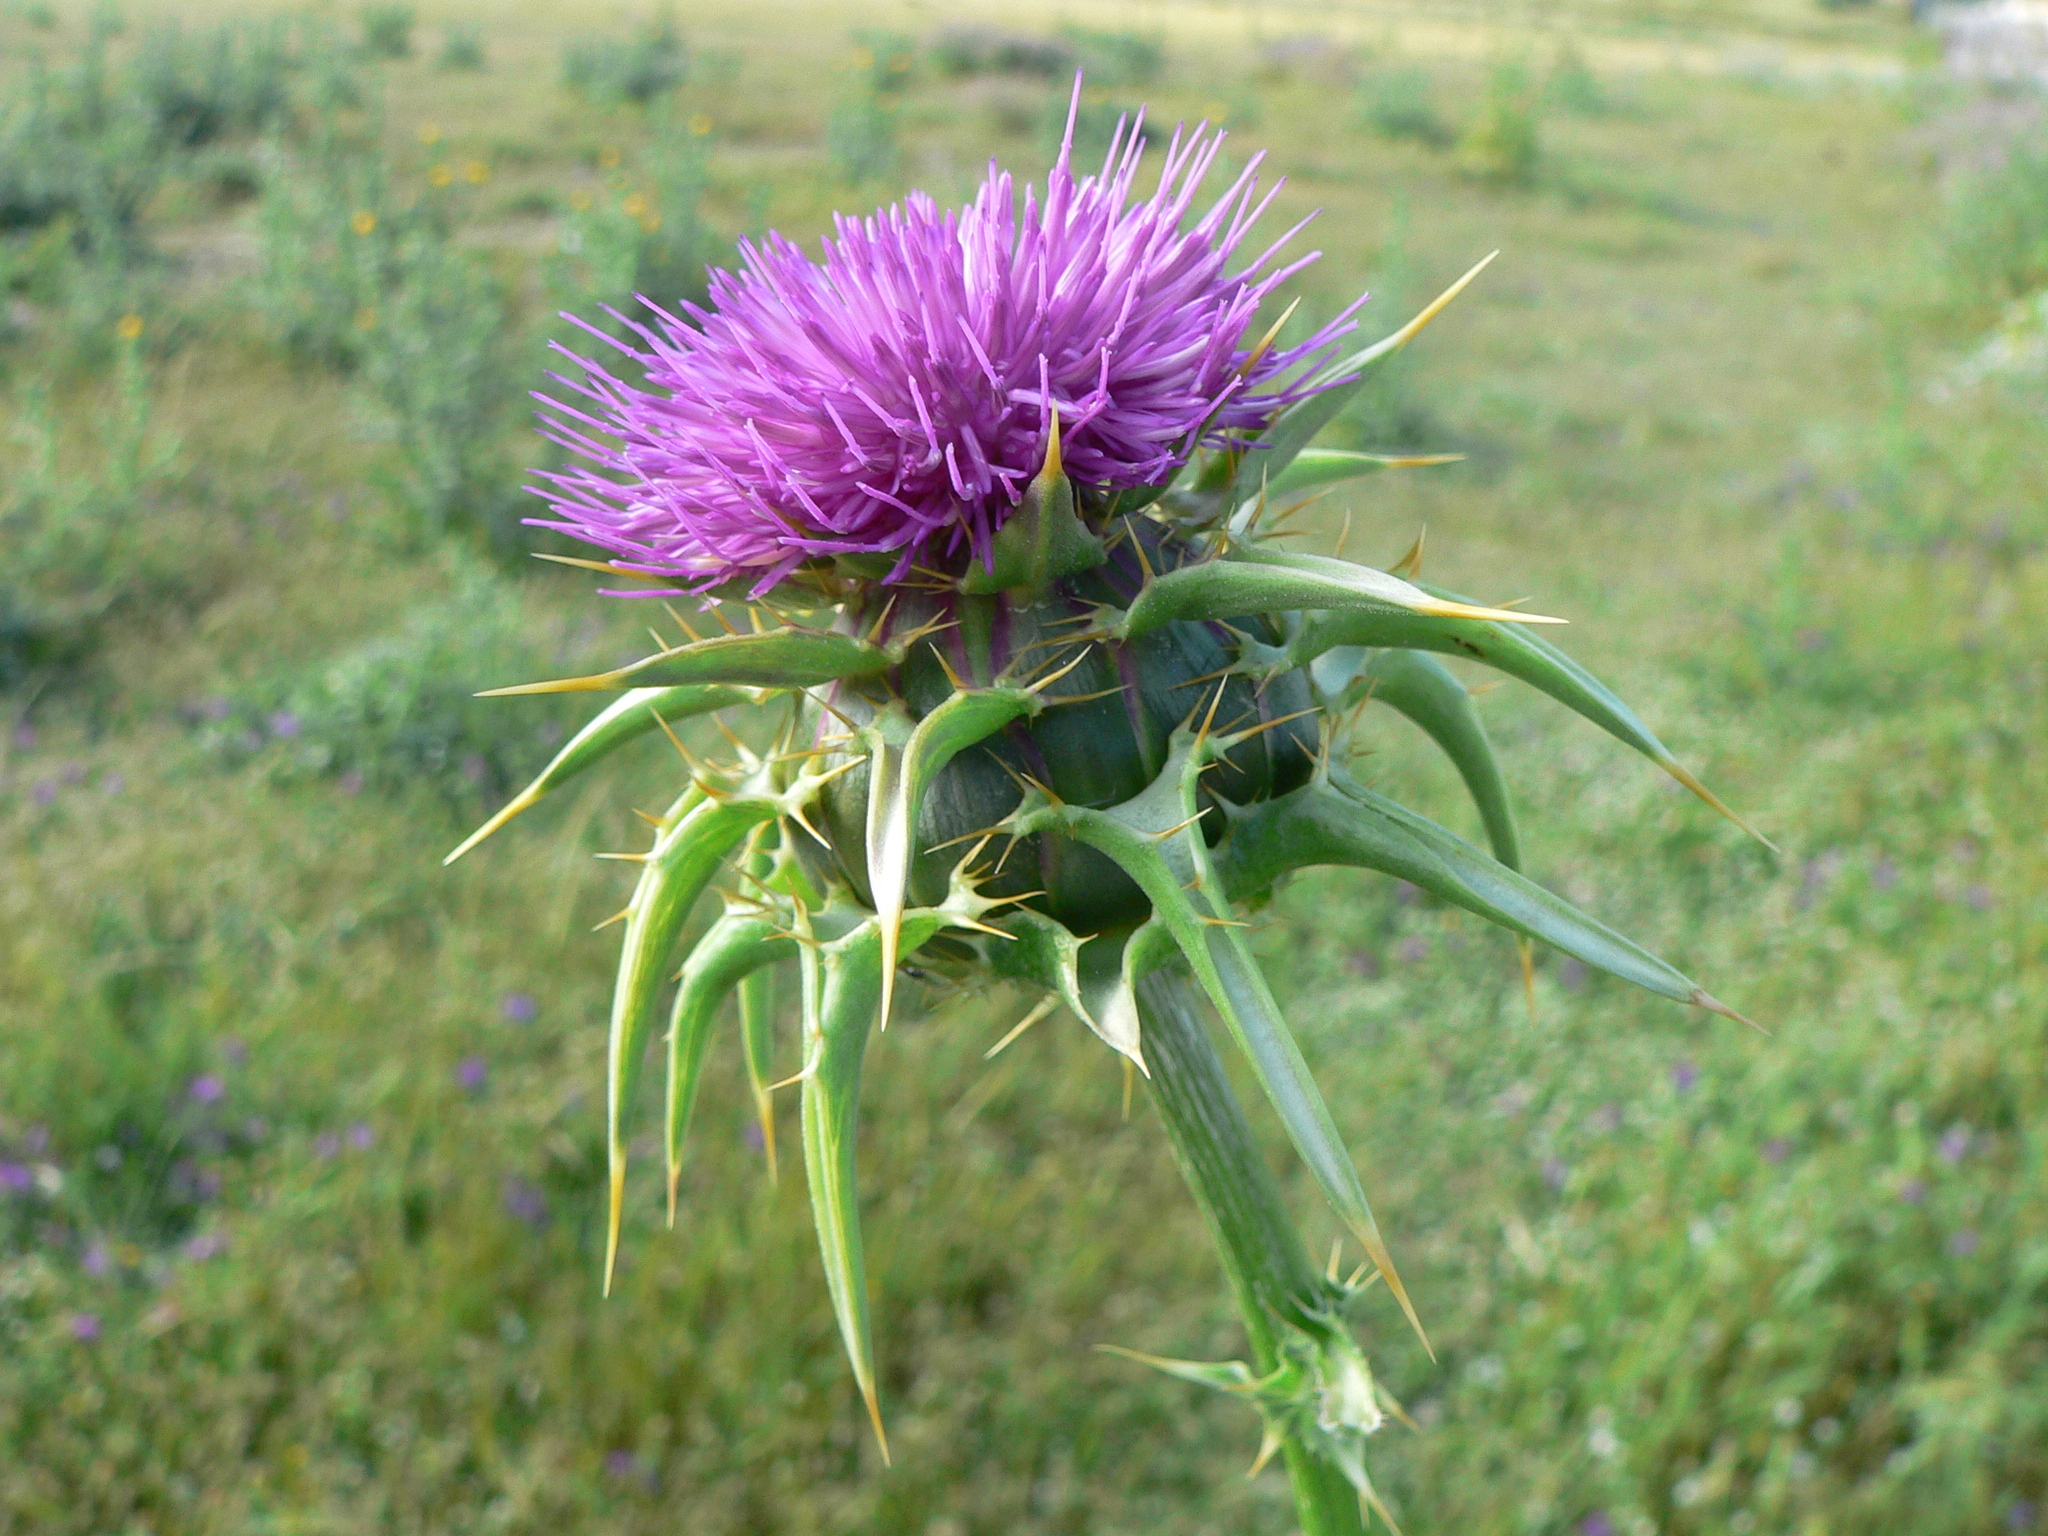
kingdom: Plantae
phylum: Tracheophyta
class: Magnoliopsida
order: Asterales
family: Asteraceae
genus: Silybum
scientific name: Silybum marianum
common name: Milk thistle
